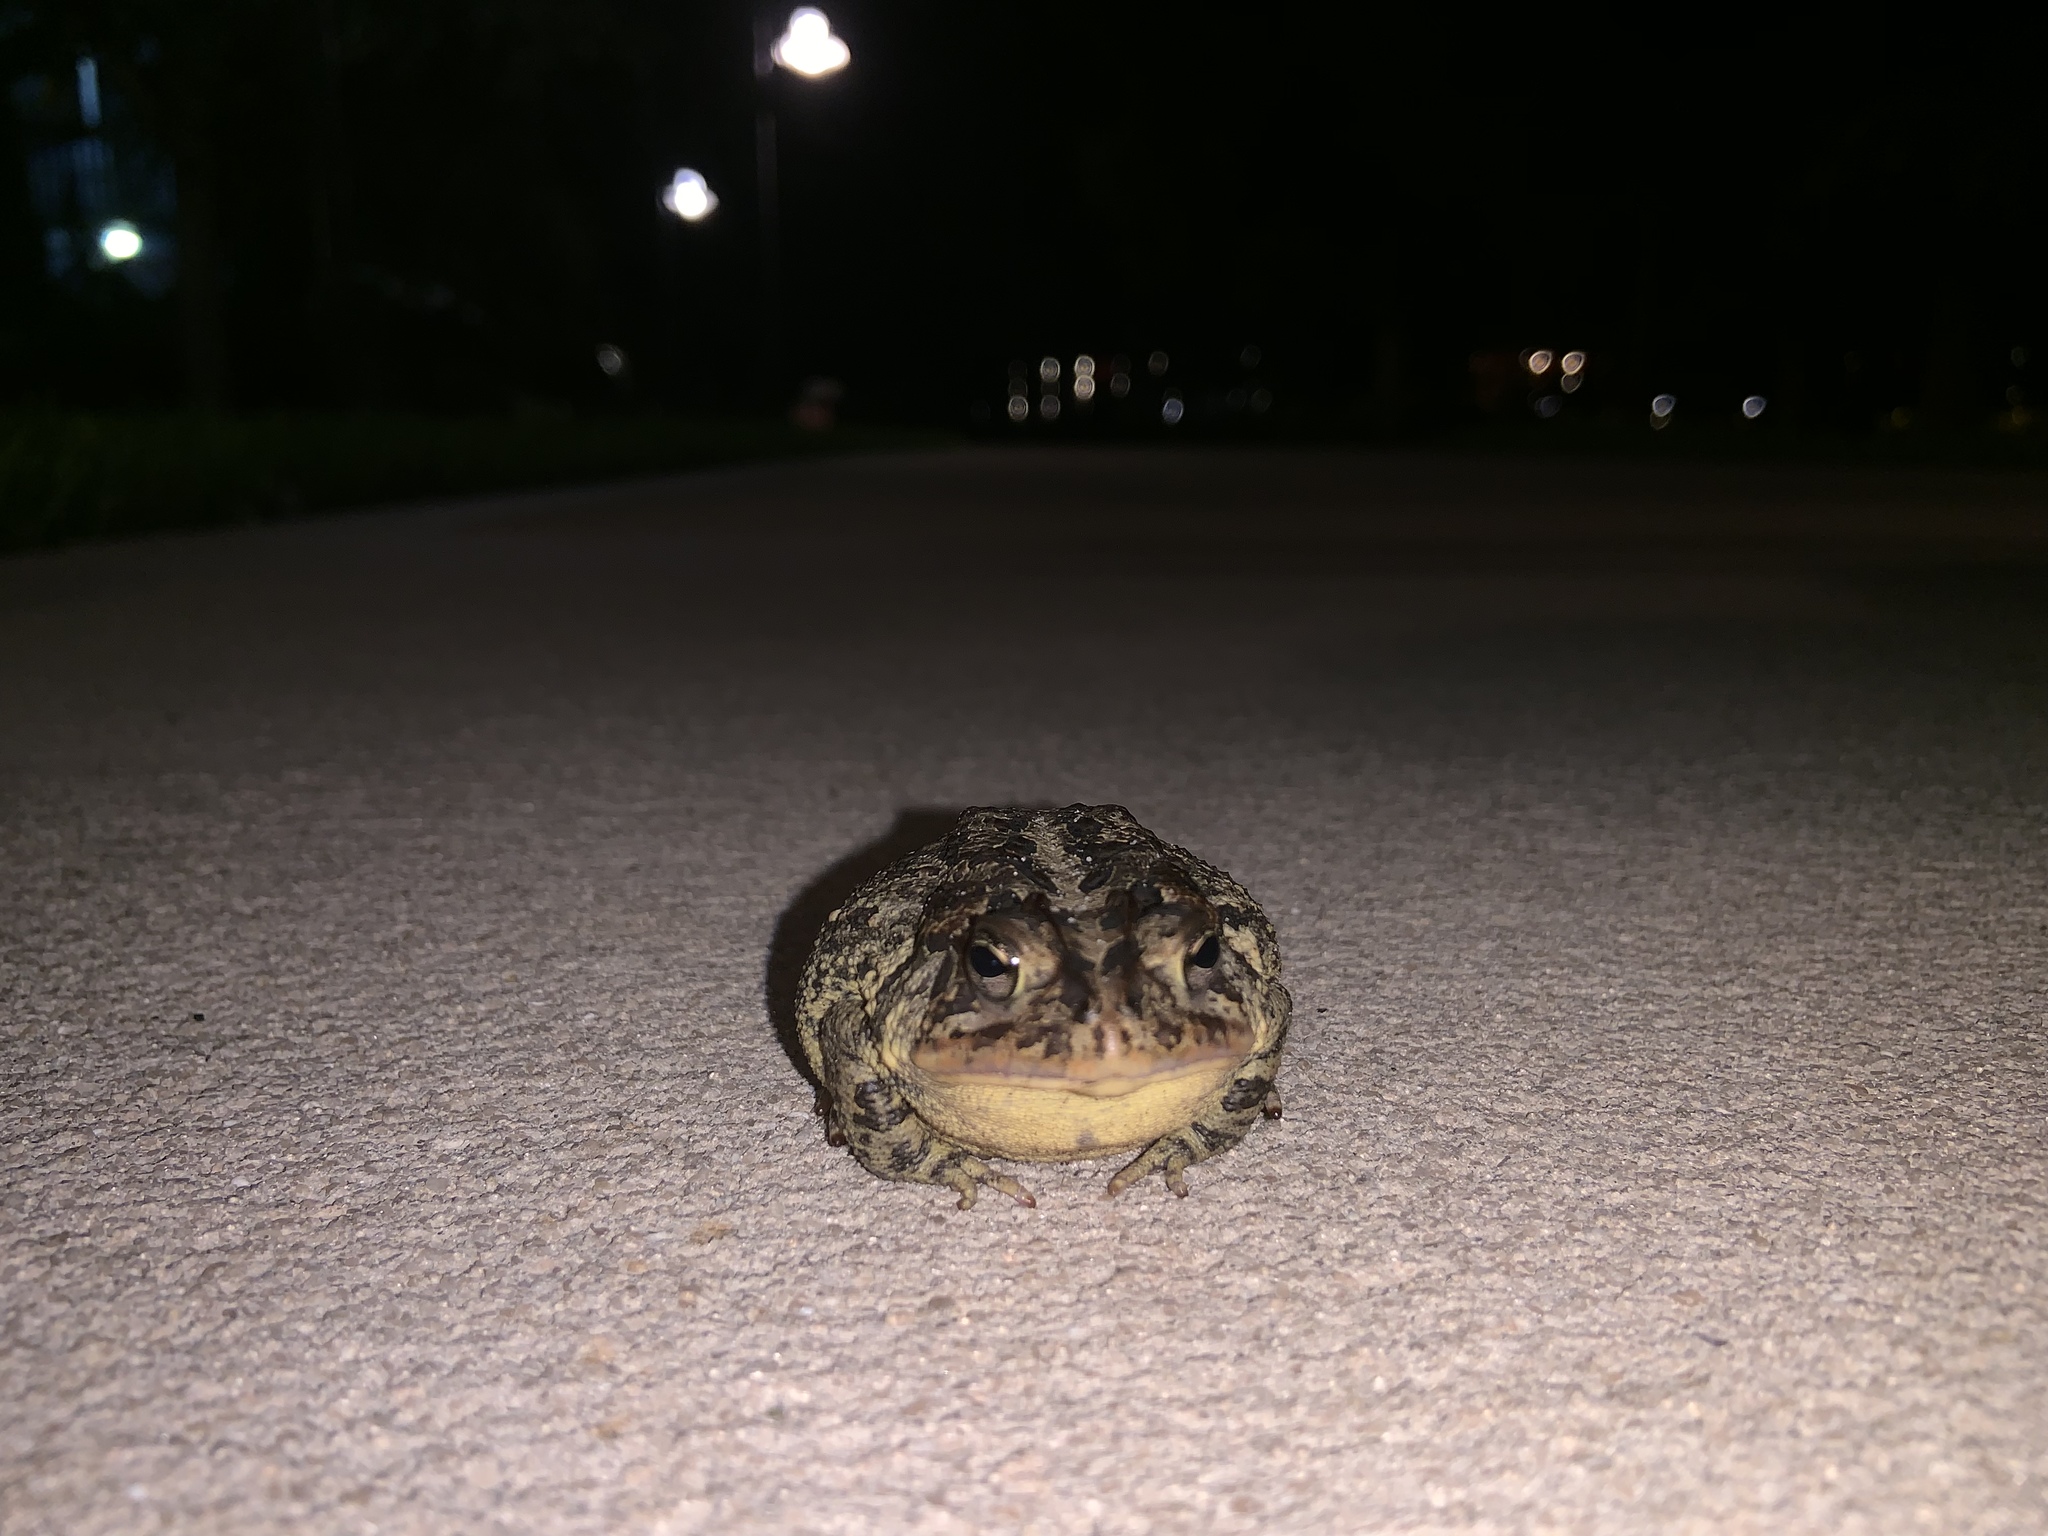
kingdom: Animalia
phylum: Chordata
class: Amphibia
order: Anura
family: Bufonidae
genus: Anaxyrus
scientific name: Anaxyrus terrestris
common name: Southern toad
